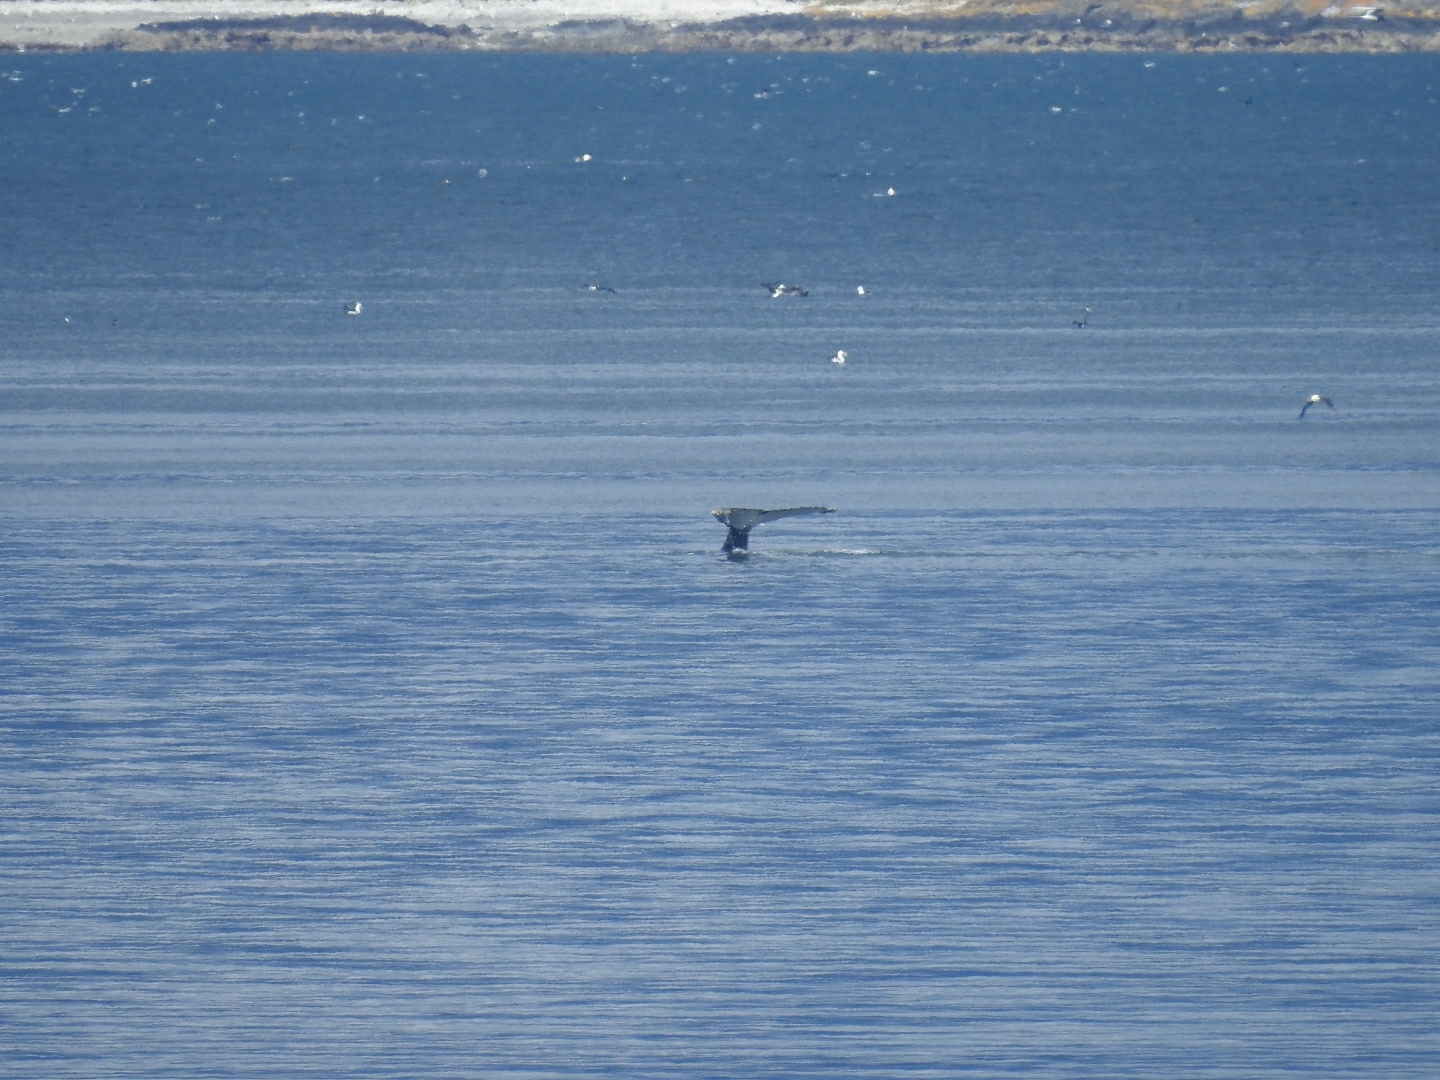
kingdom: Animalia
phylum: Chordata
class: Mammalia
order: Cetacea
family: Balaenopteridae
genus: Megaptera
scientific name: Megaptera novaeangliae
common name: Humpback whale
